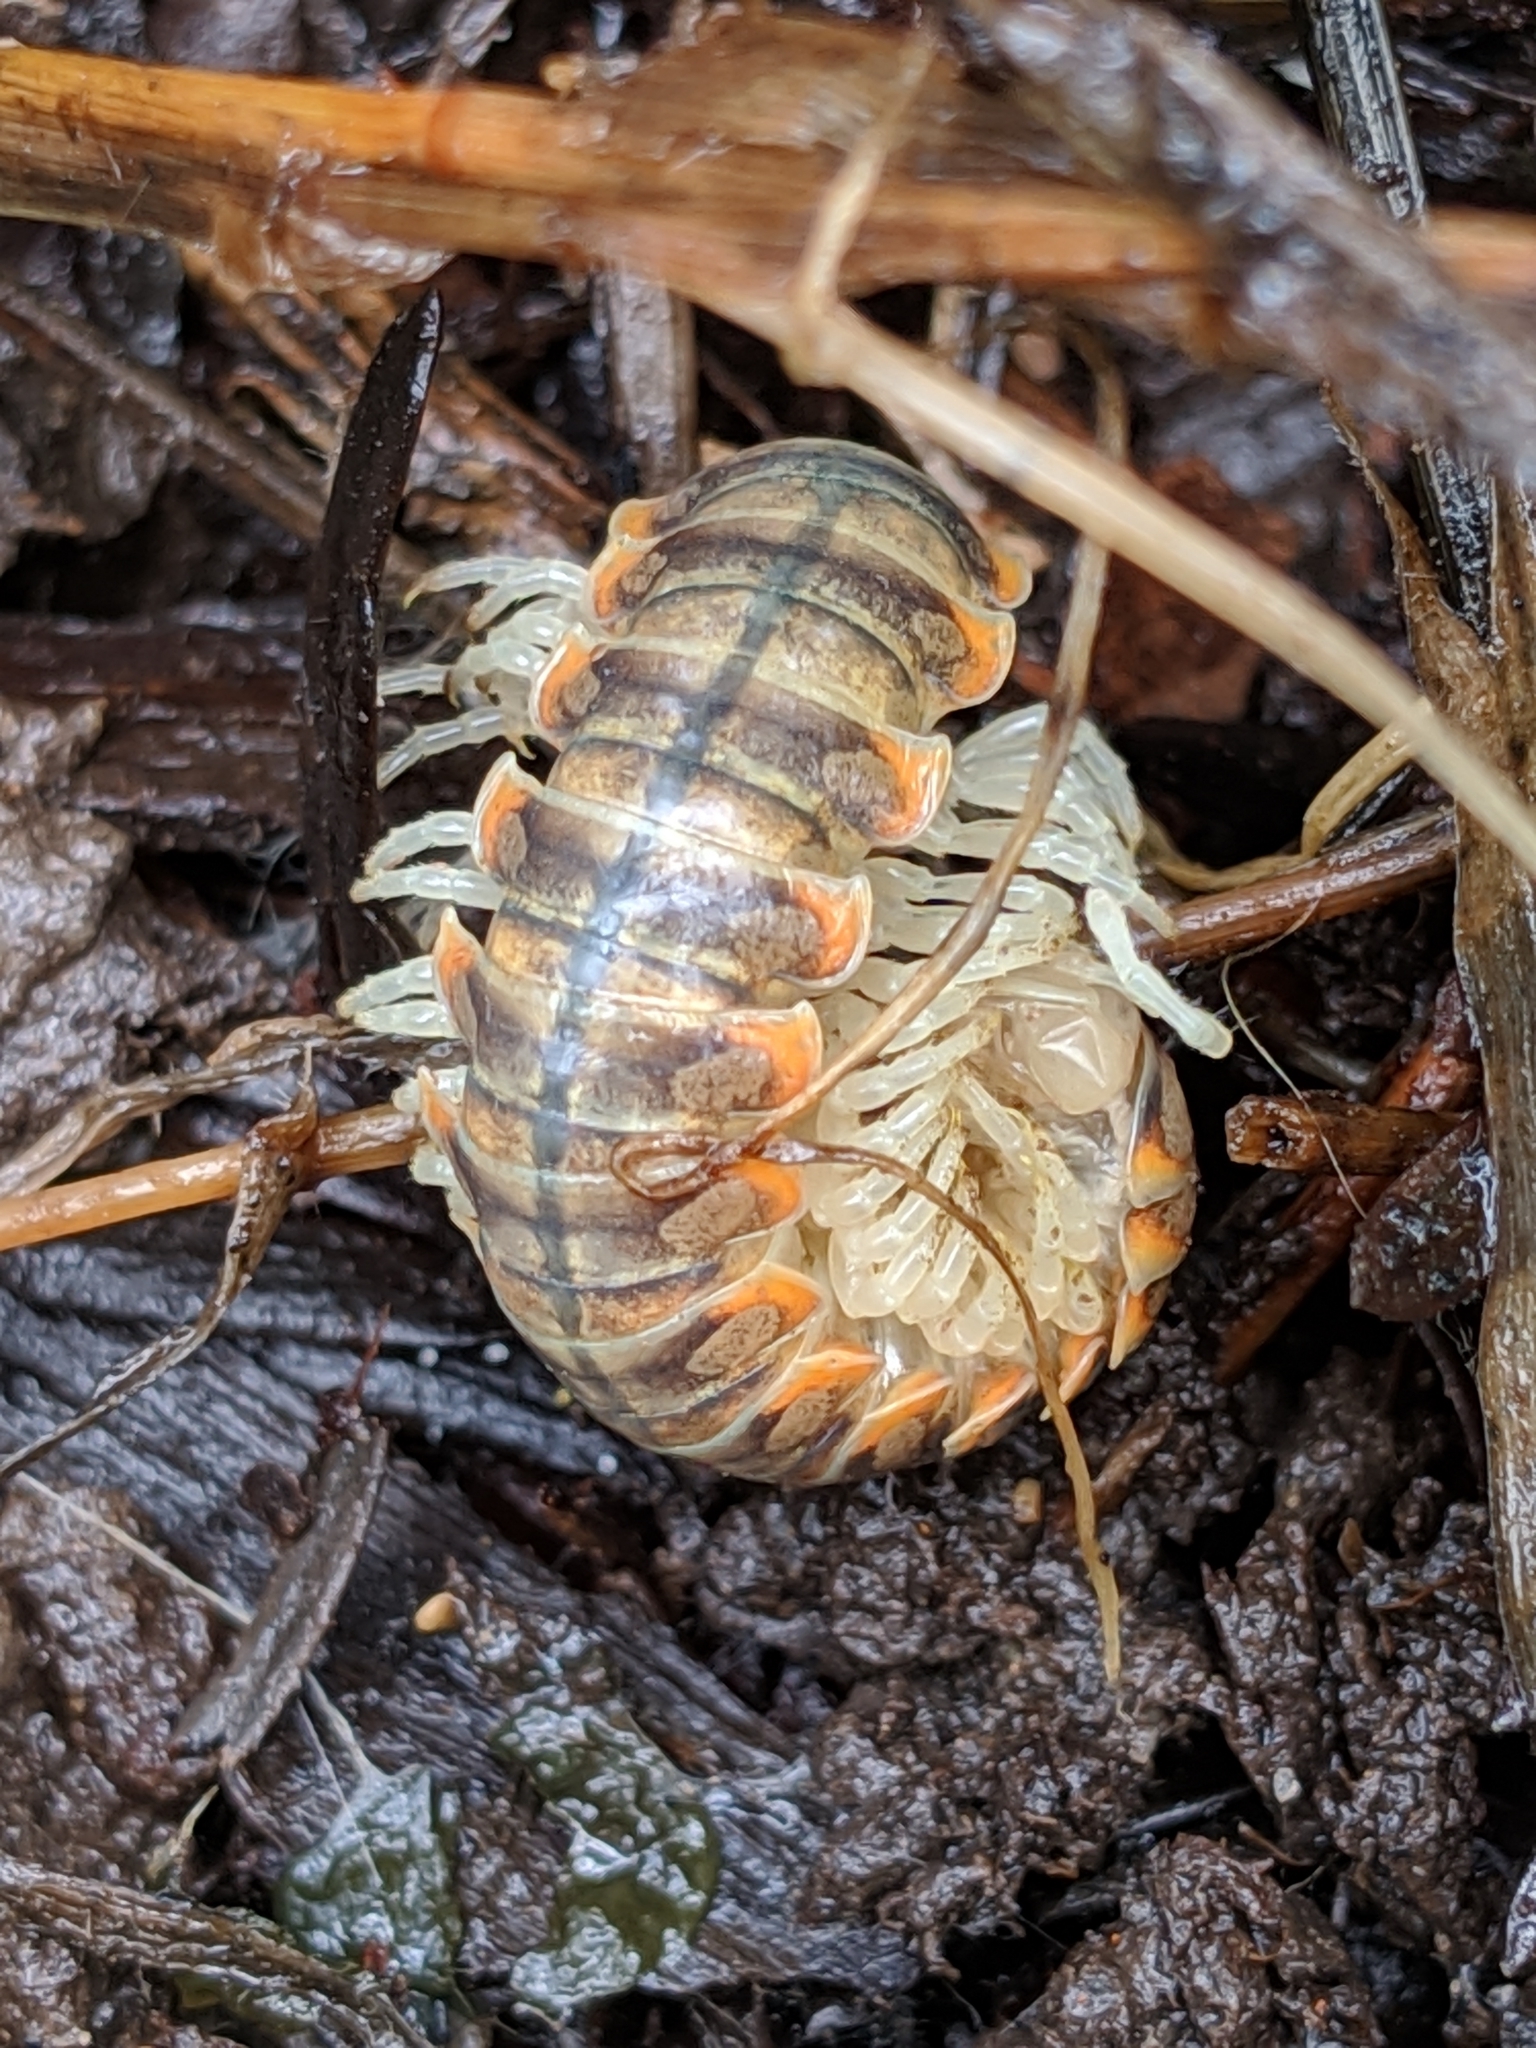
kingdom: Animalia
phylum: Arthropoda
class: Diplopoda
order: Polydesmida
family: Xystodesmidae
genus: Xystocheir
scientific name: Xystocheir dissecta
